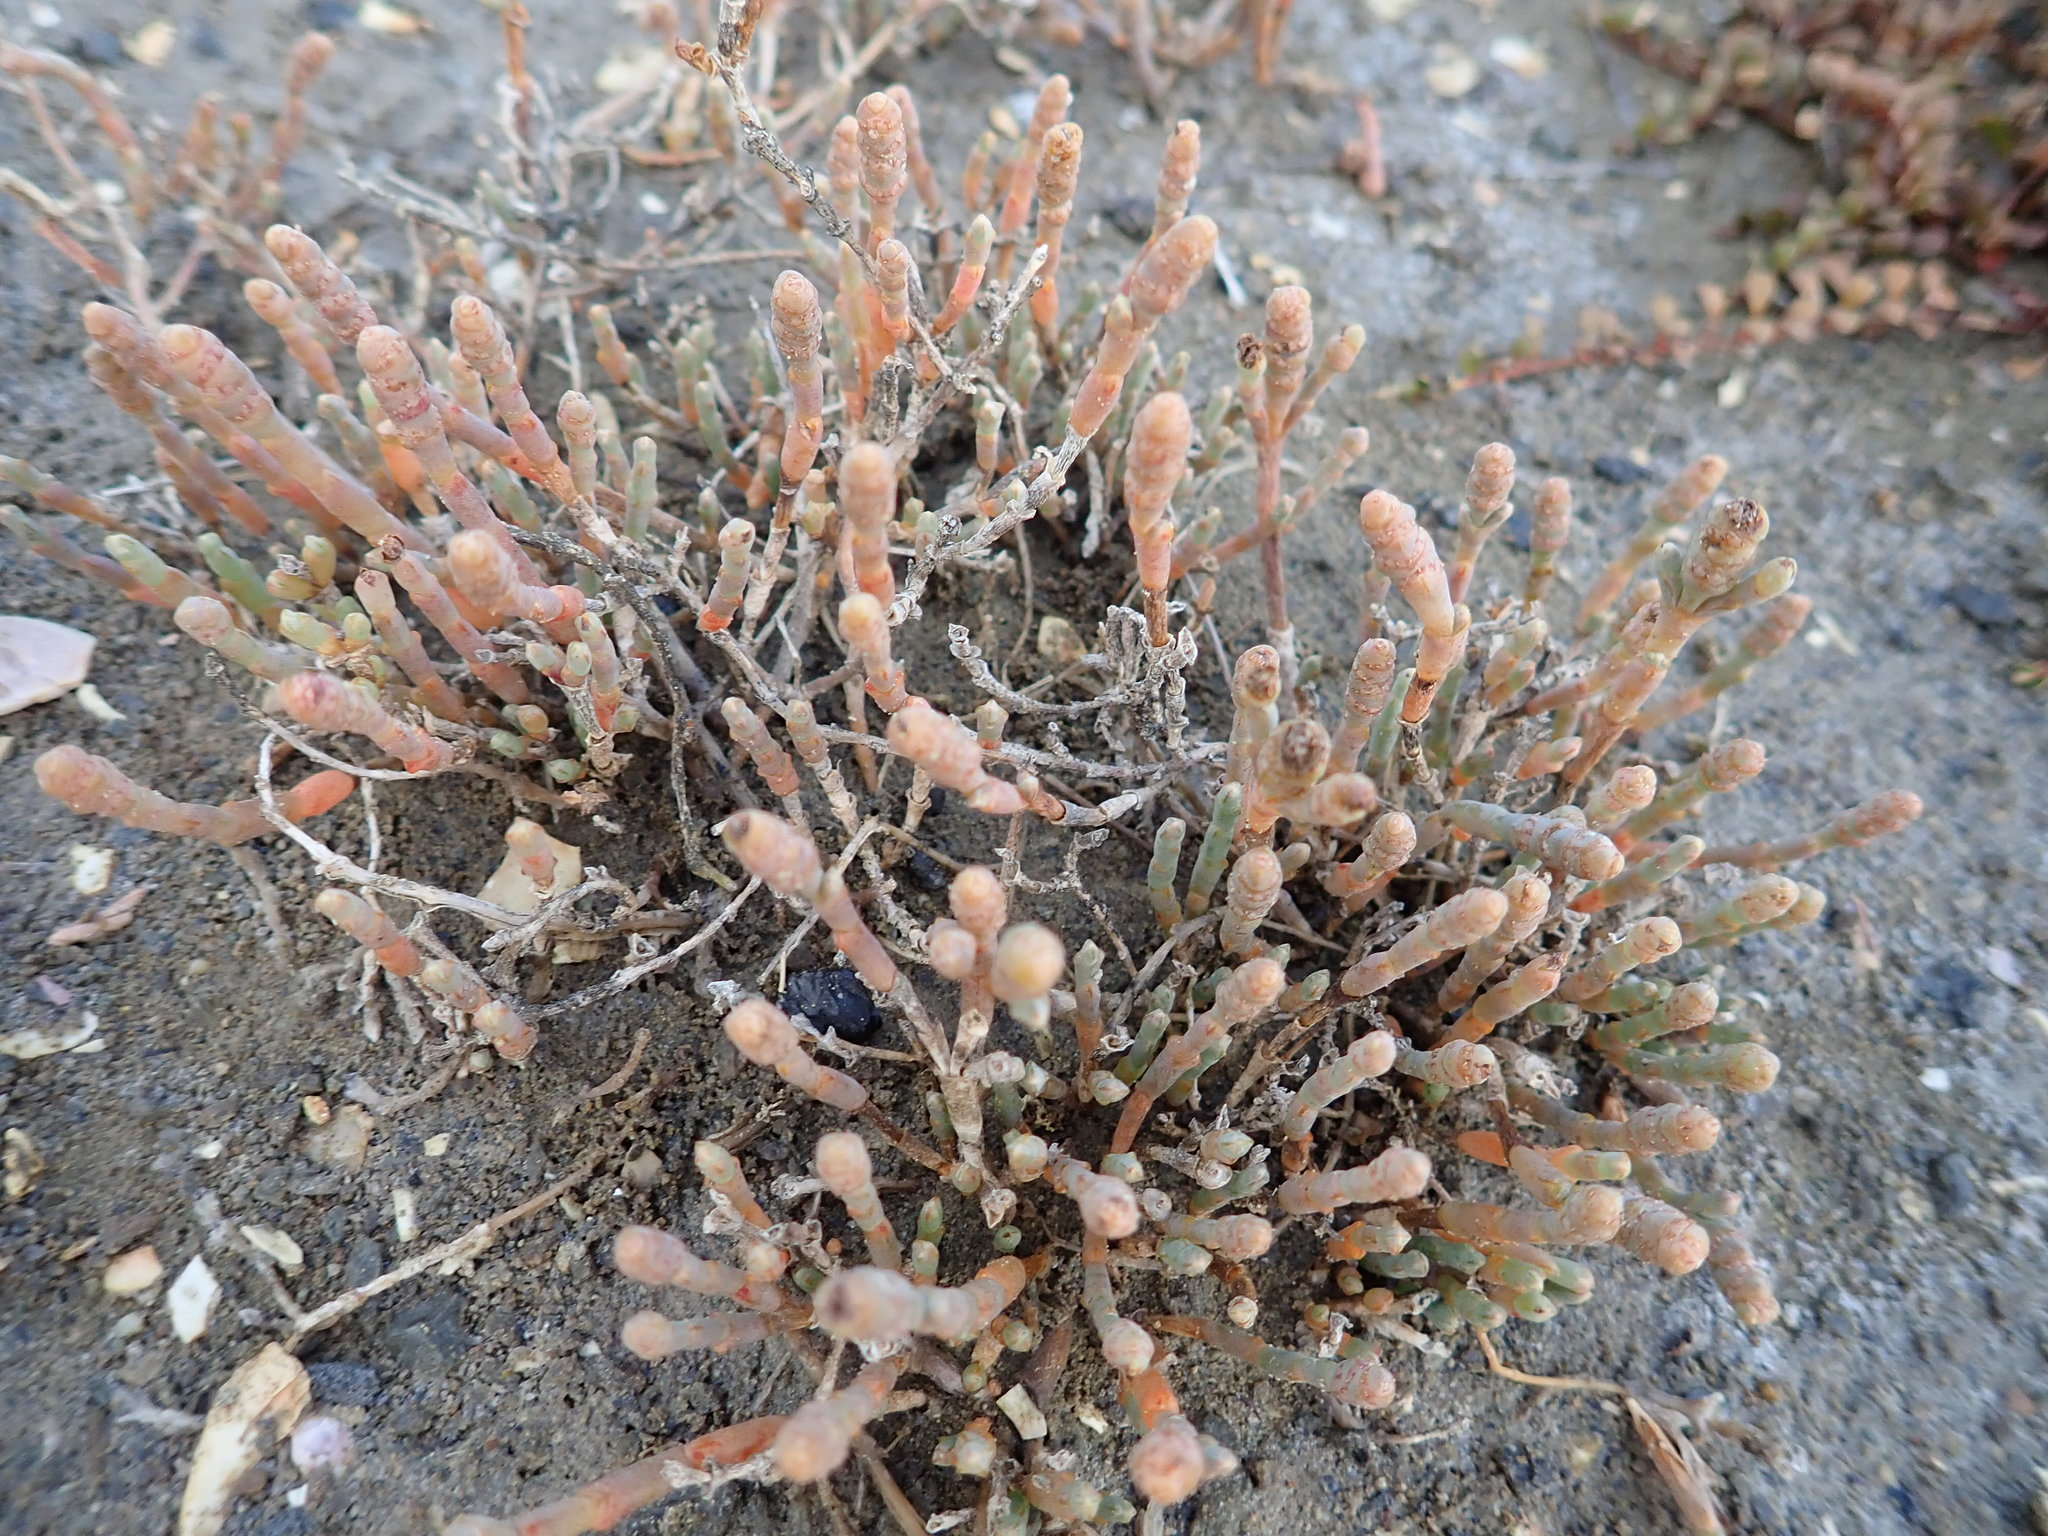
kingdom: Plantae
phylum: Tracheophyta
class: Magnoliopsida
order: Caryophyllales
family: Amaranthaceae
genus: Salicornia
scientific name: Salicornia quinqueflora
